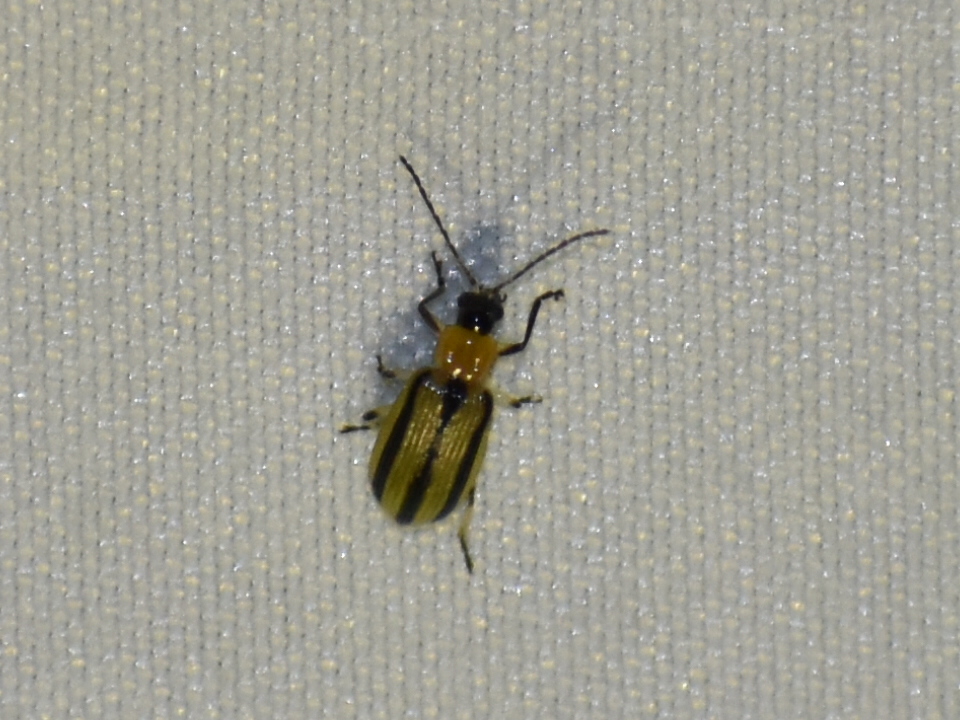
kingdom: Animalia
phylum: Arthropoda
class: Insecta
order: Coleoptera
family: Chrysomelidae
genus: Acalymma
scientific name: Acalymma vittatum
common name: Striped cucumber beetle
